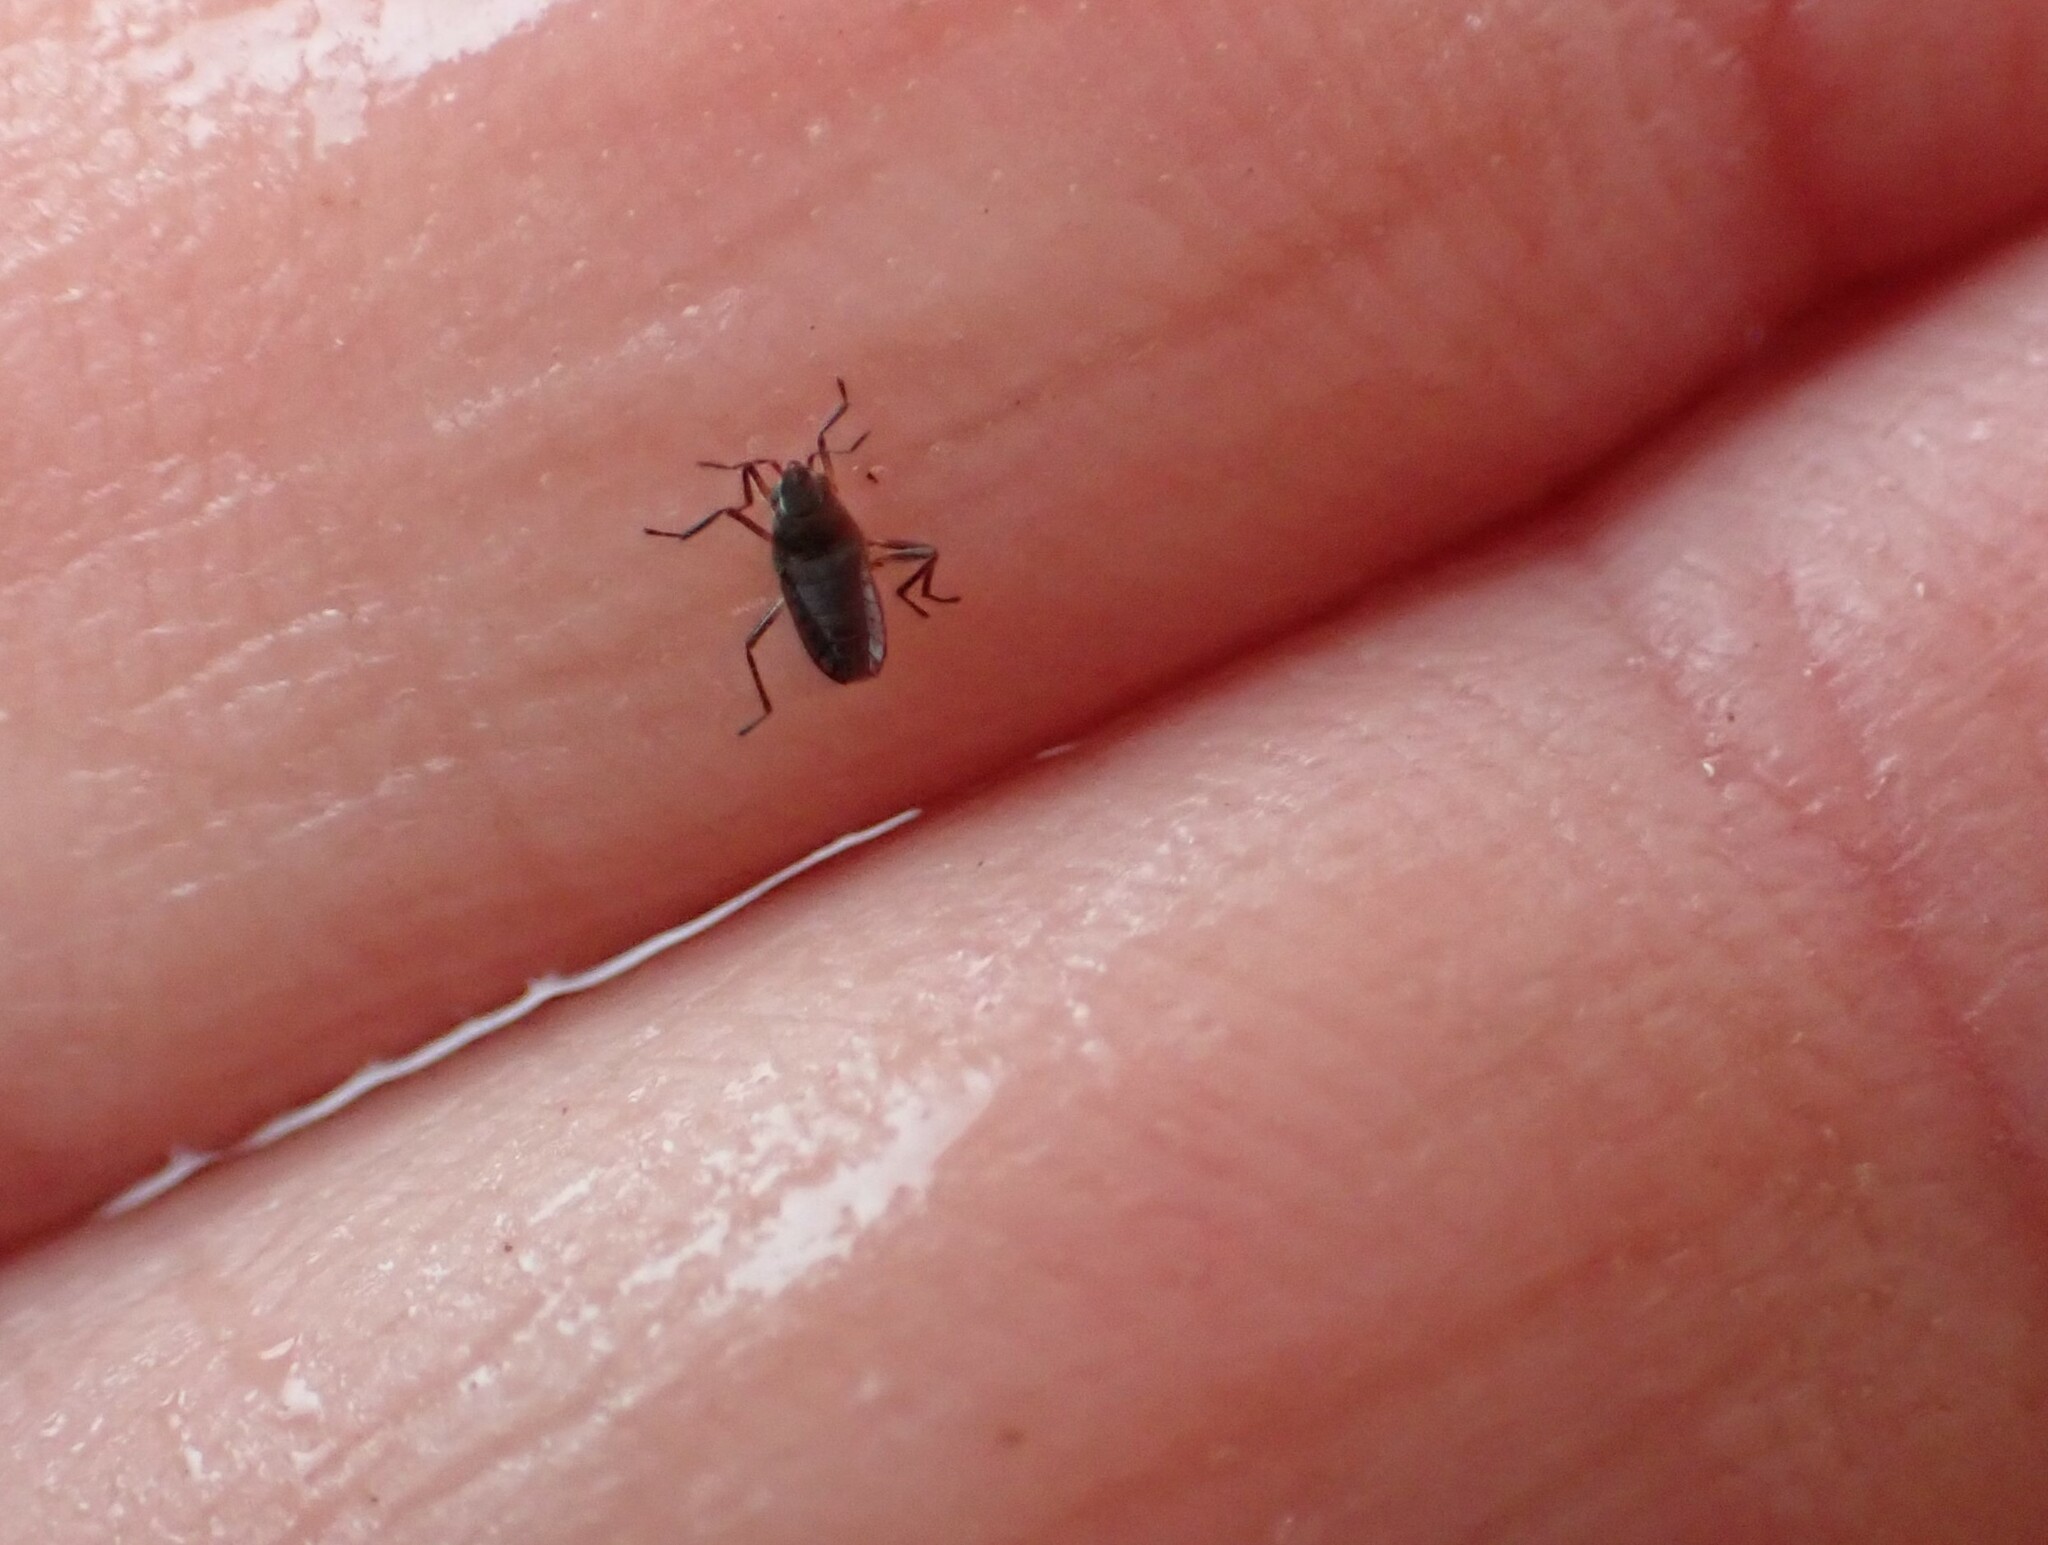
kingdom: Animalia
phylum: Arthropoda
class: Insecta
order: Hemiptera
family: Veliidae
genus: Microvelia
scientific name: Microvelia macgregori
